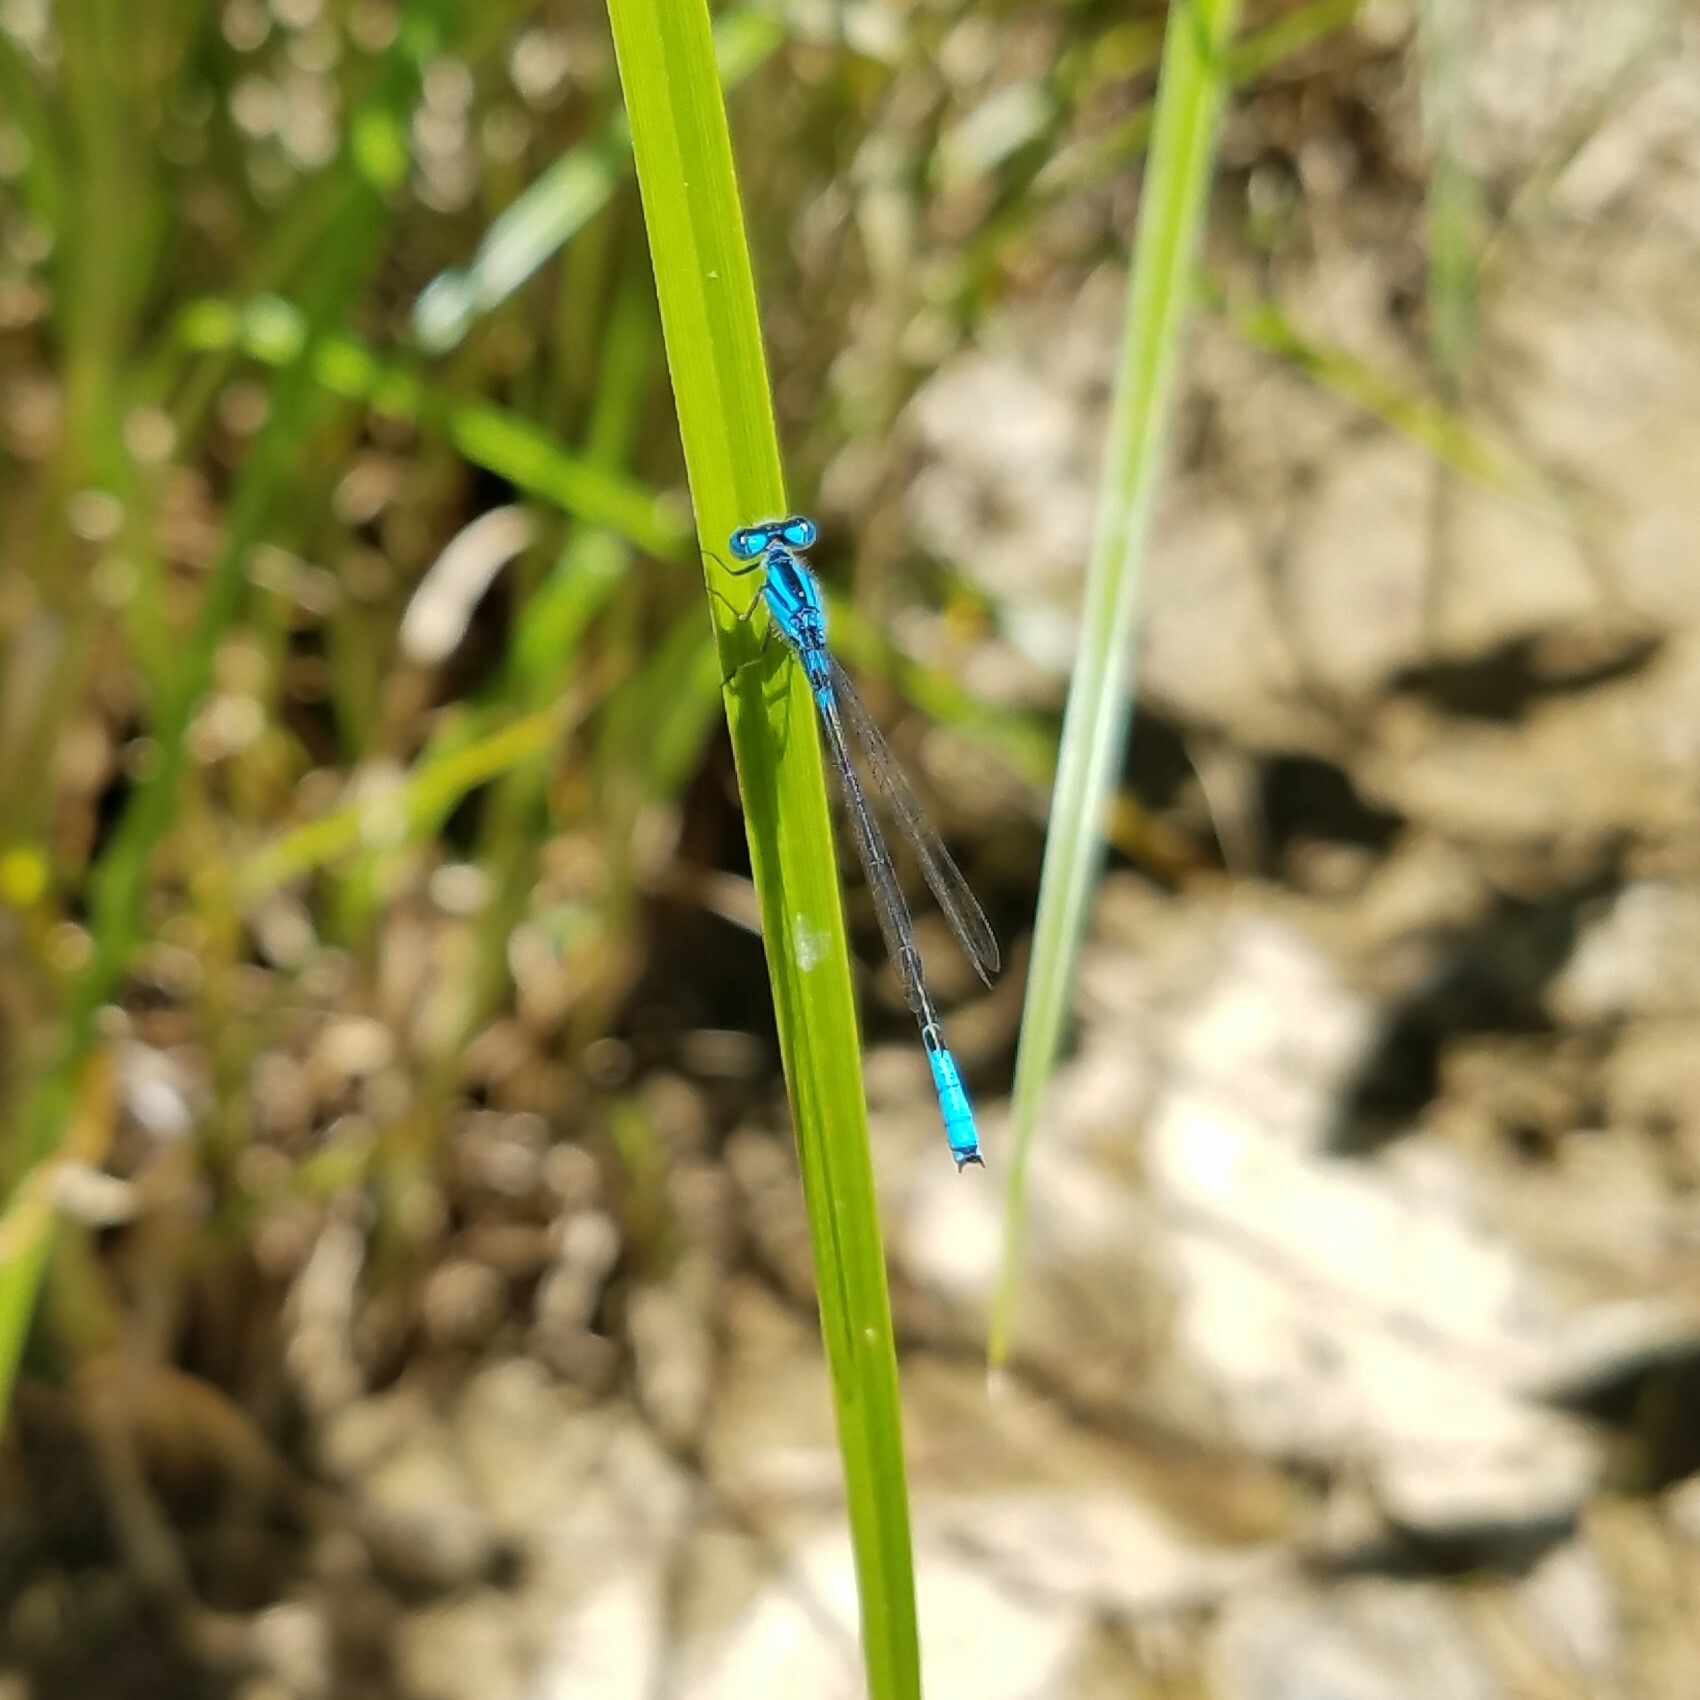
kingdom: Animalia
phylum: Arthropoda
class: Insecta
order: Odonata
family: Coenagrionidae
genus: Enallagma
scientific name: Enallagma aspersum
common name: Azure bluet
